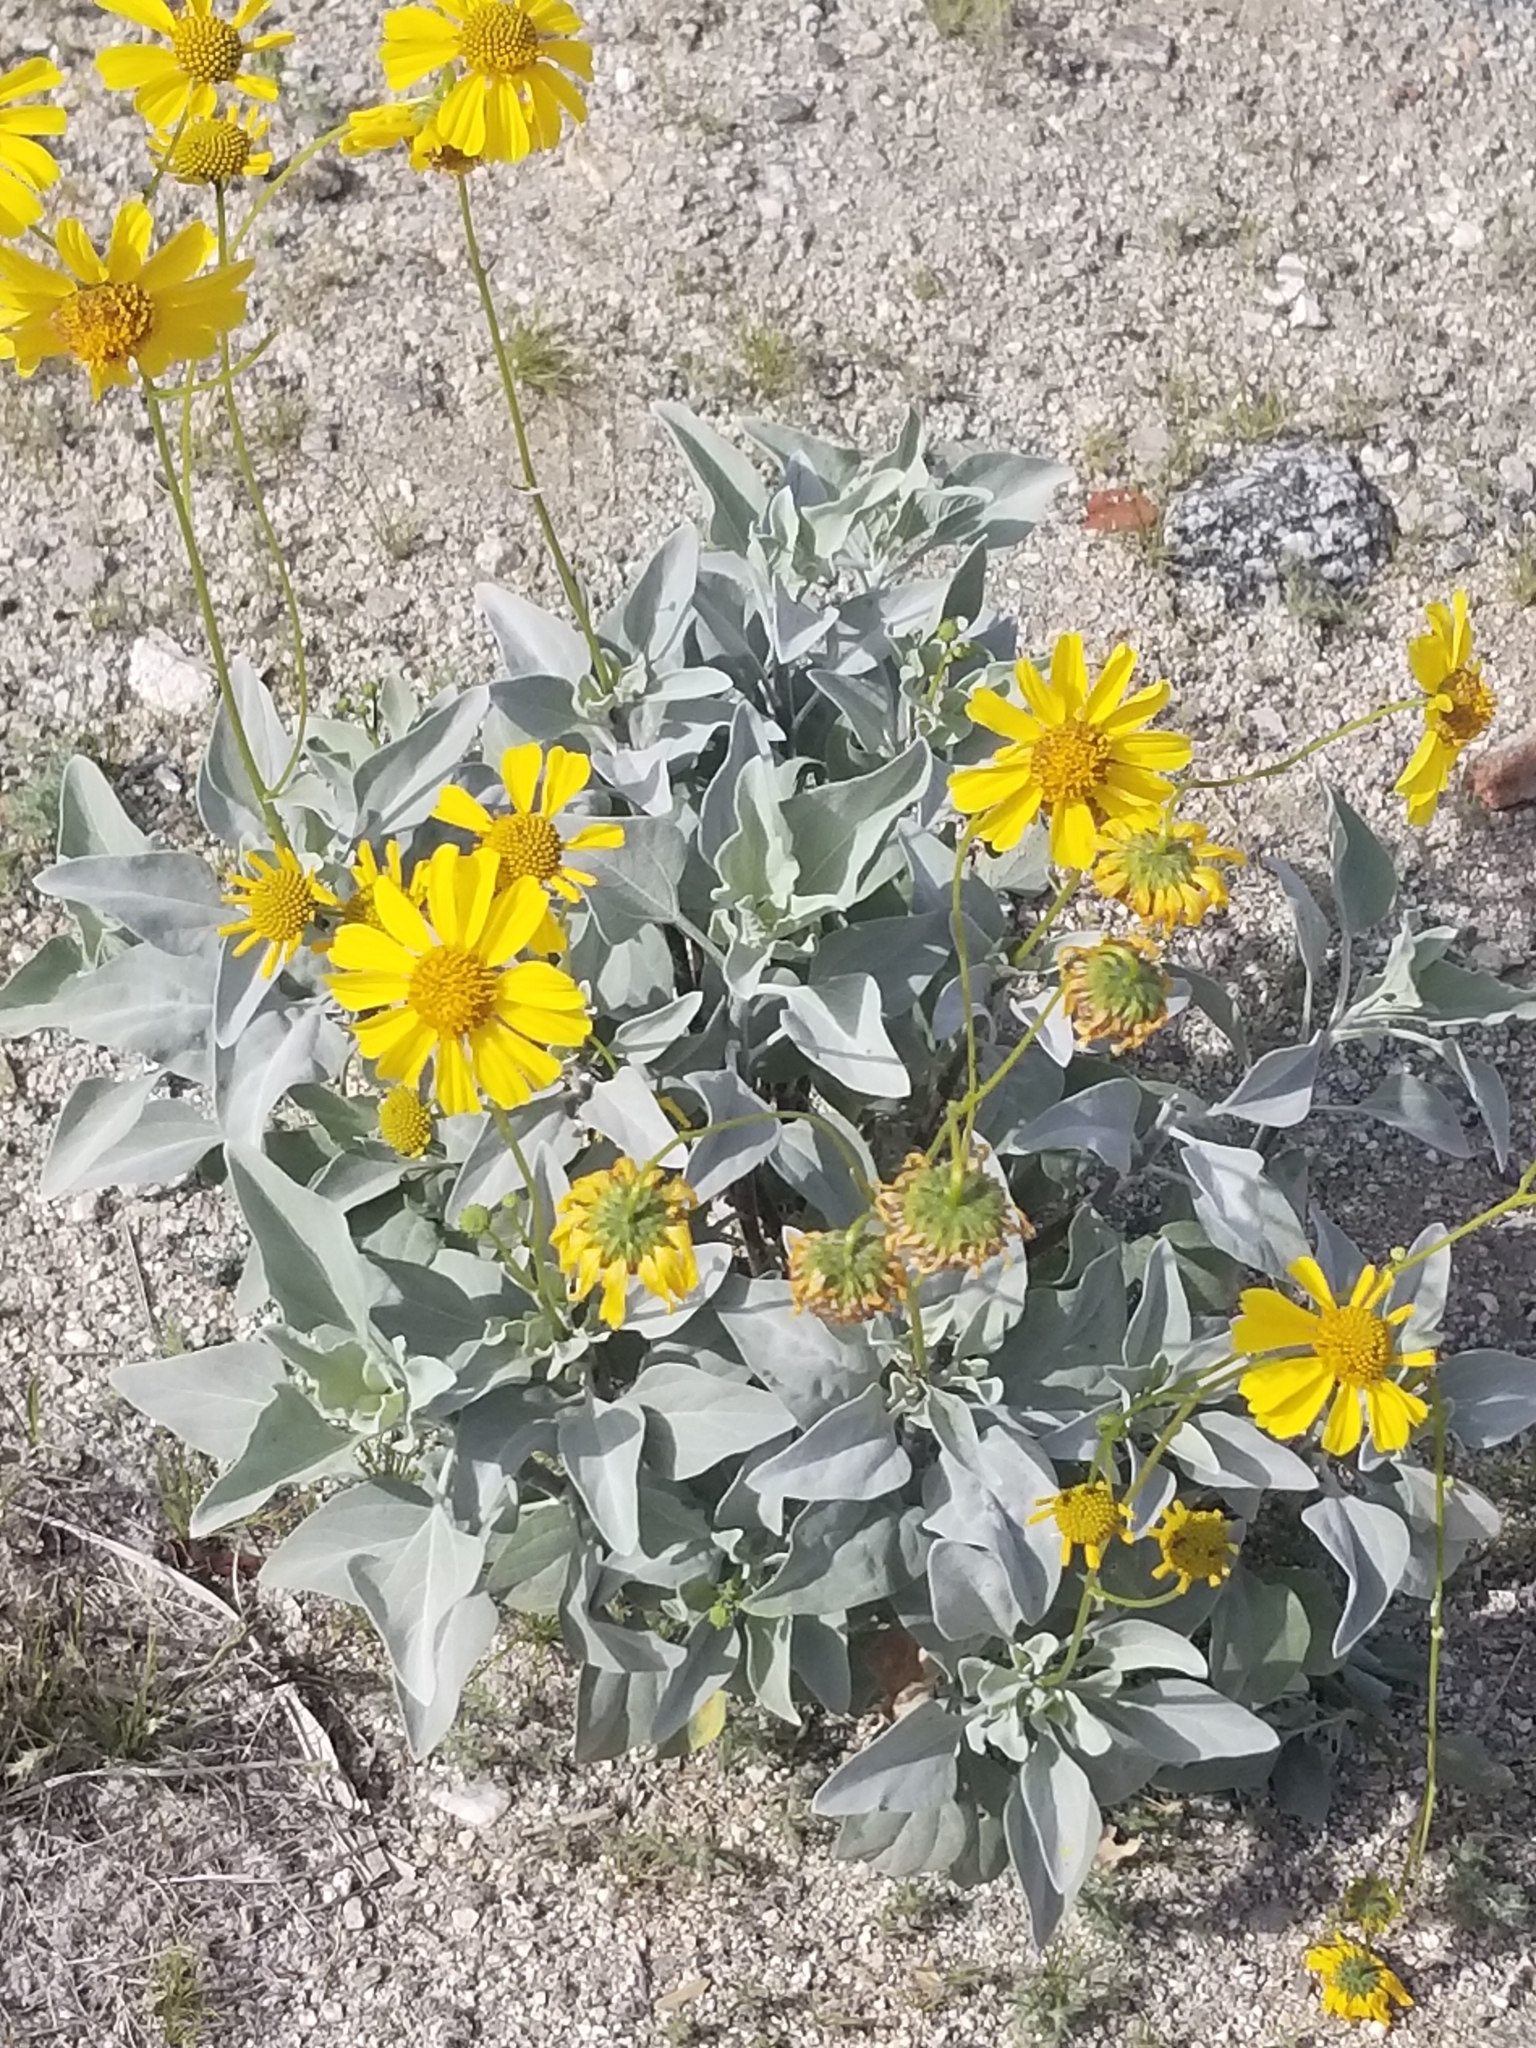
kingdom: Plantae
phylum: Tracheophyta
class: Magnoliopsida
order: Asterales
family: Asteraceae
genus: Encelia
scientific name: Encelia farinosa
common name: Brittlebush
